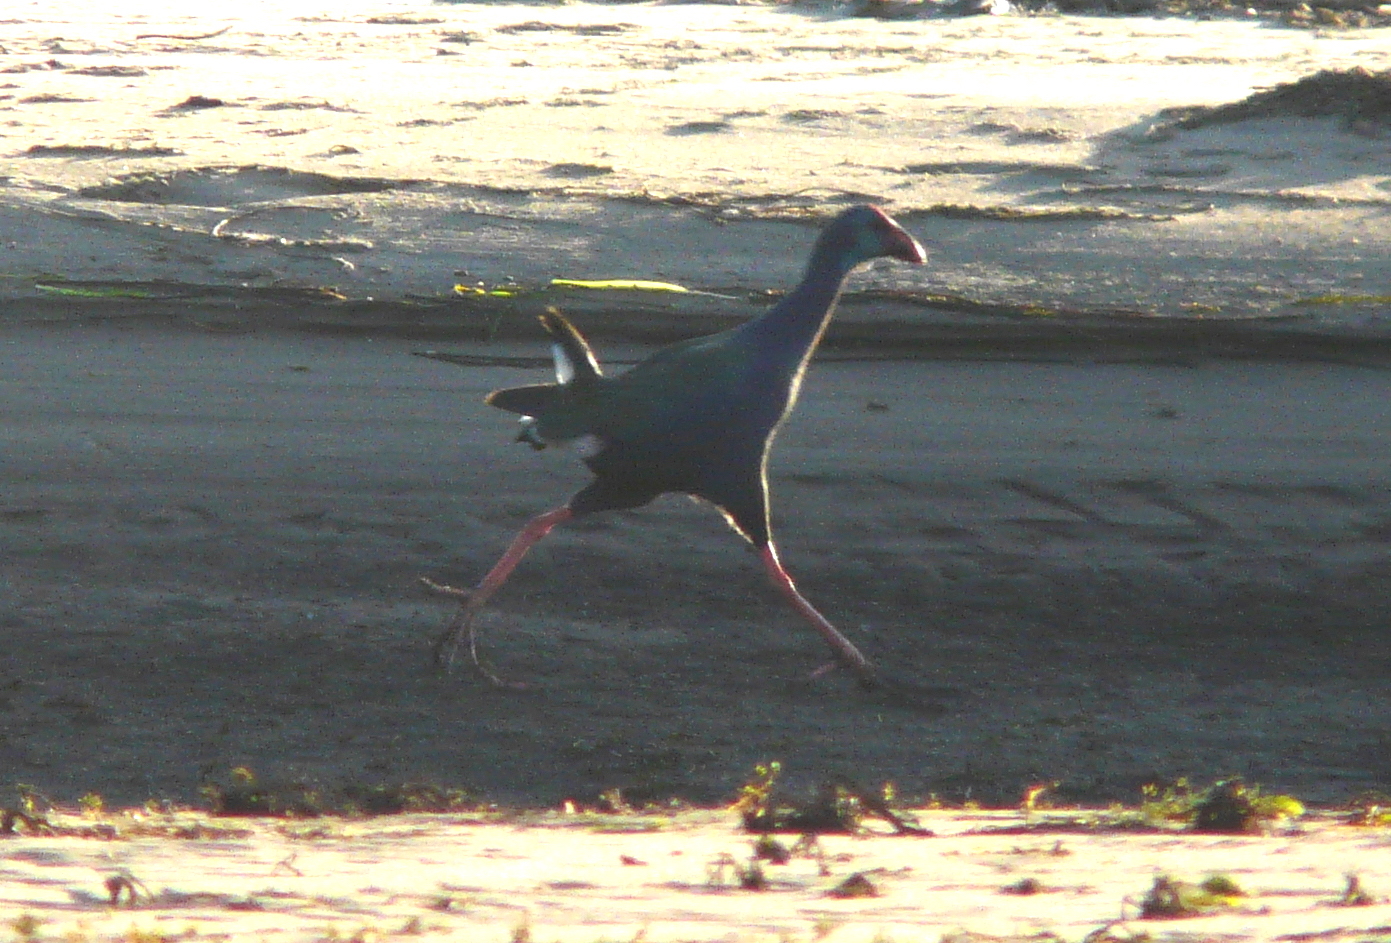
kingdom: Animalia
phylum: Chordata
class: Aves
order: Gruiformes
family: Rallidae
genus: Porphyrio
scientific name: Porphyrio porphyrio
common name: Purple swamphen
